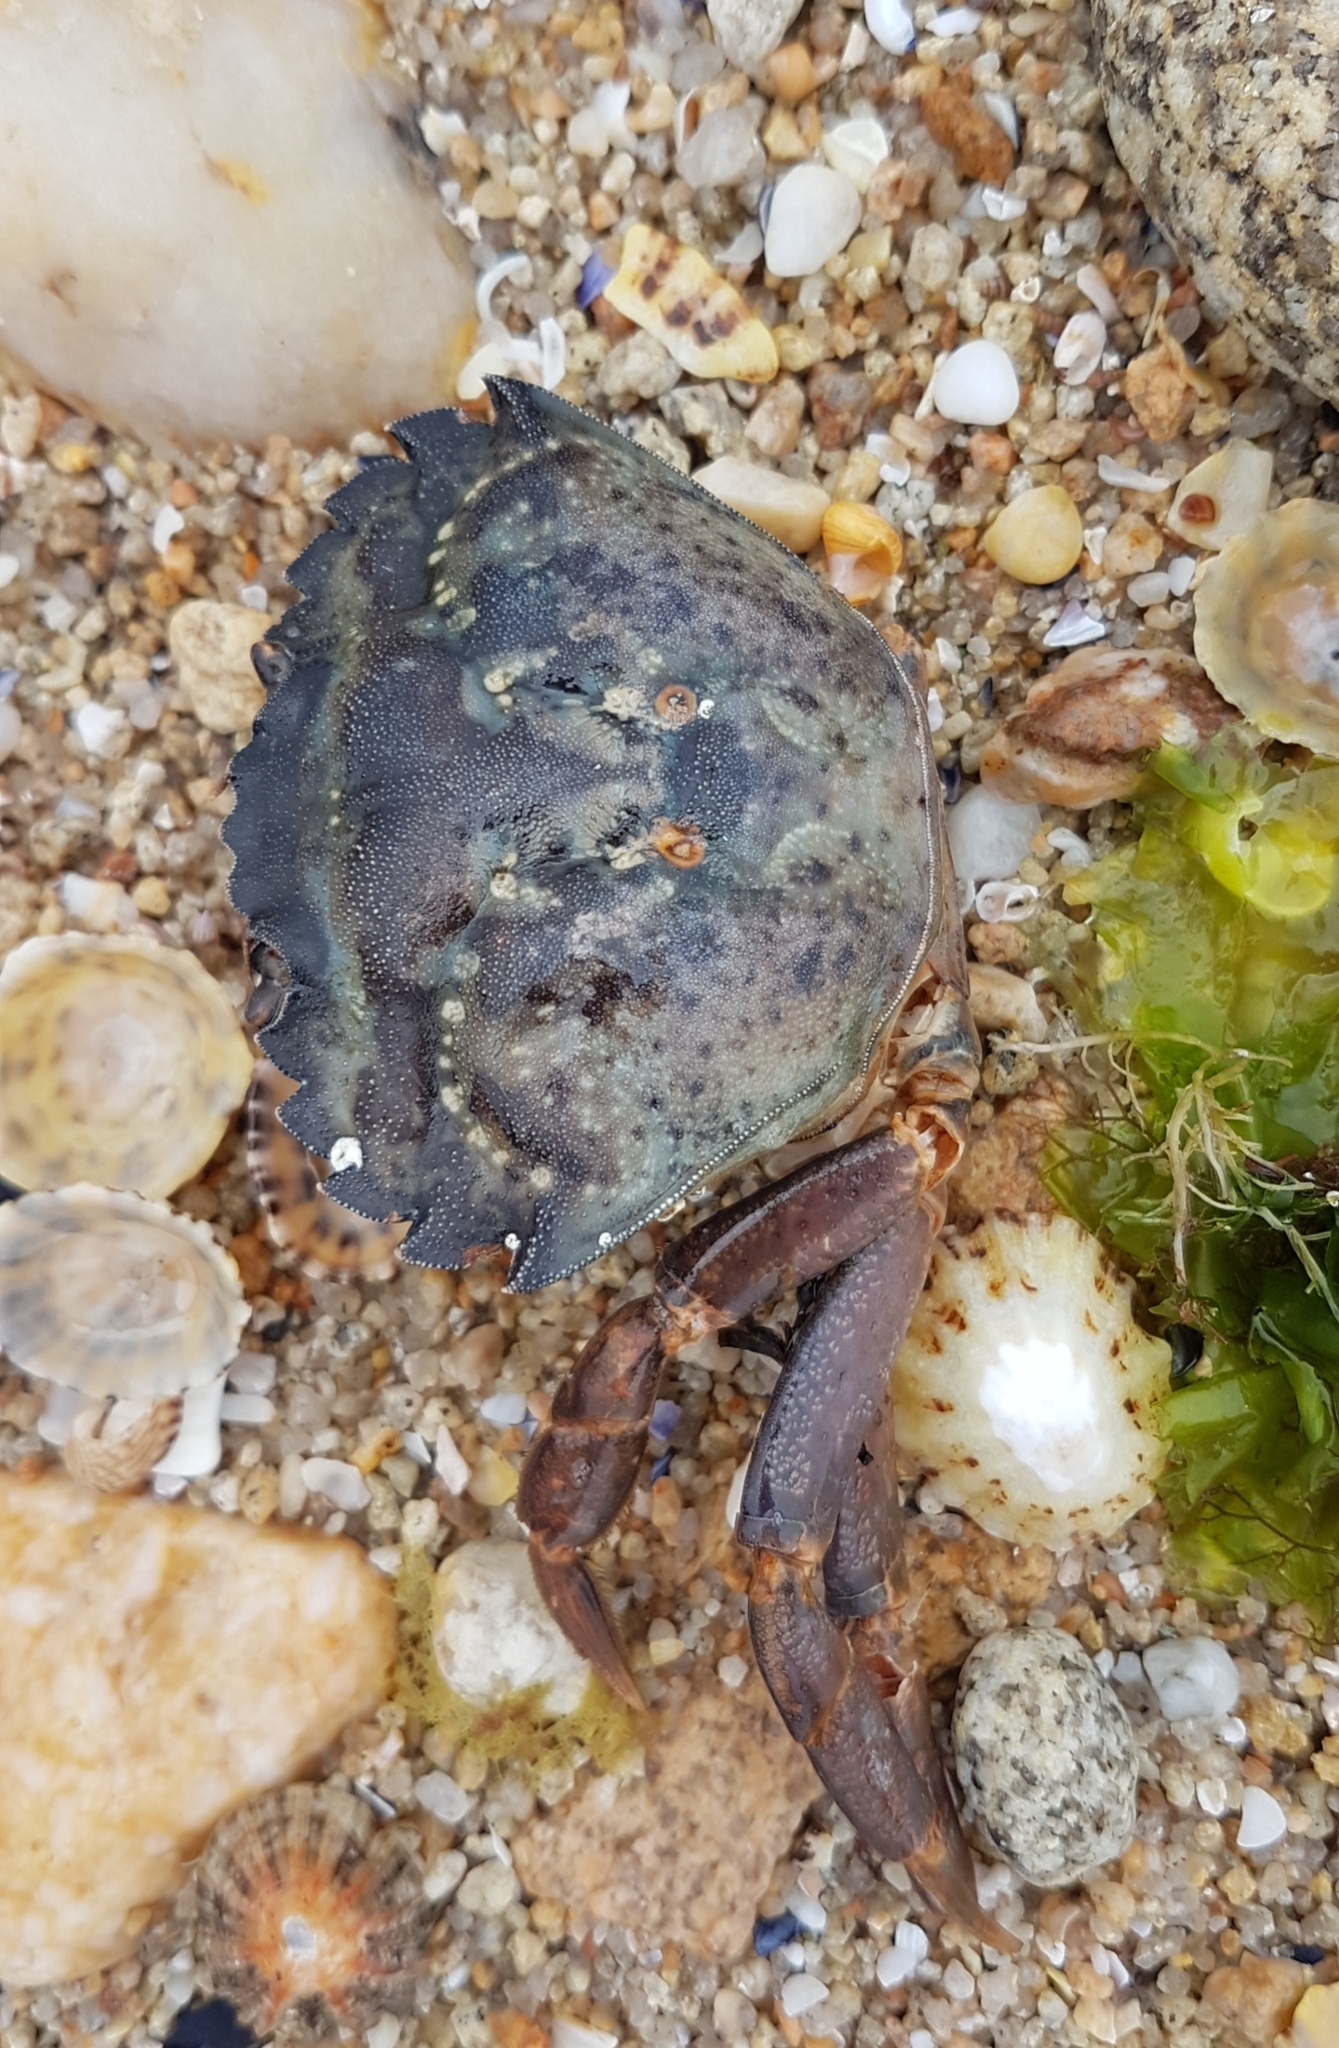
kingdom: Animalia
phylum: Arthropoda
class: Malacostraca
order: Decapoda
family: Carcinidae
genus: Carcinus
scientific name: Carcinus maenas
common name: European green crab
